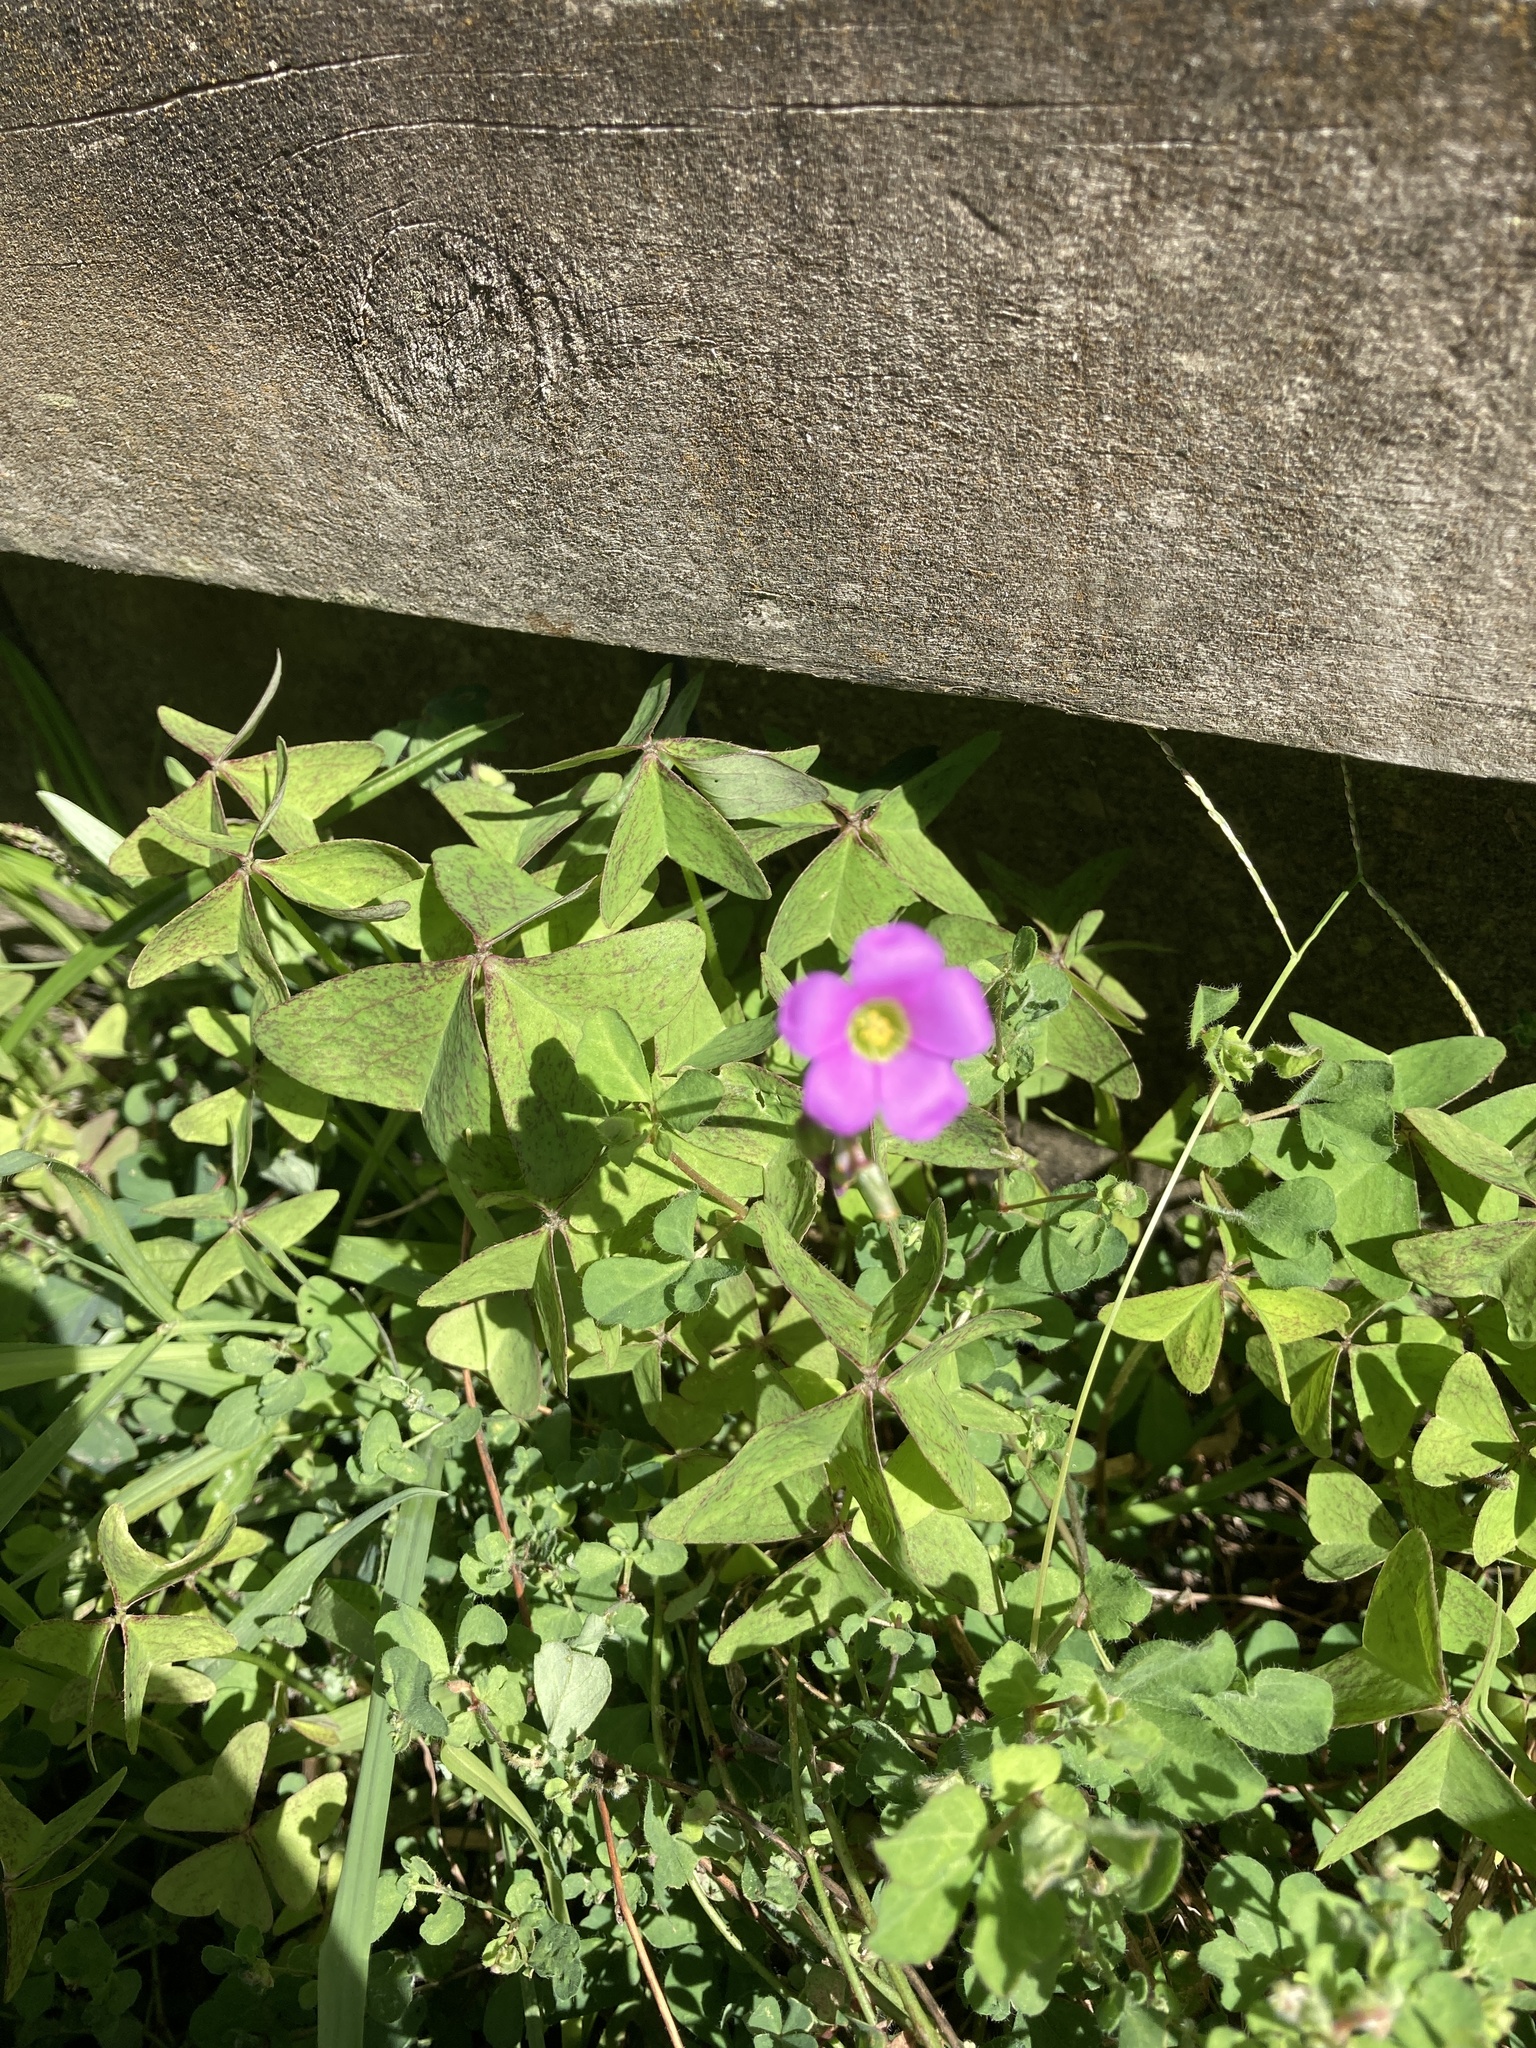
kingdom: Plantae
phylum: Tracheophyta
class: Magnoliopsida
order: Oxalidales
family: Oxalidaceae
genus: Oxalis
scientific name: Oxalis latifolia
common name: Garden pink-sorrel
